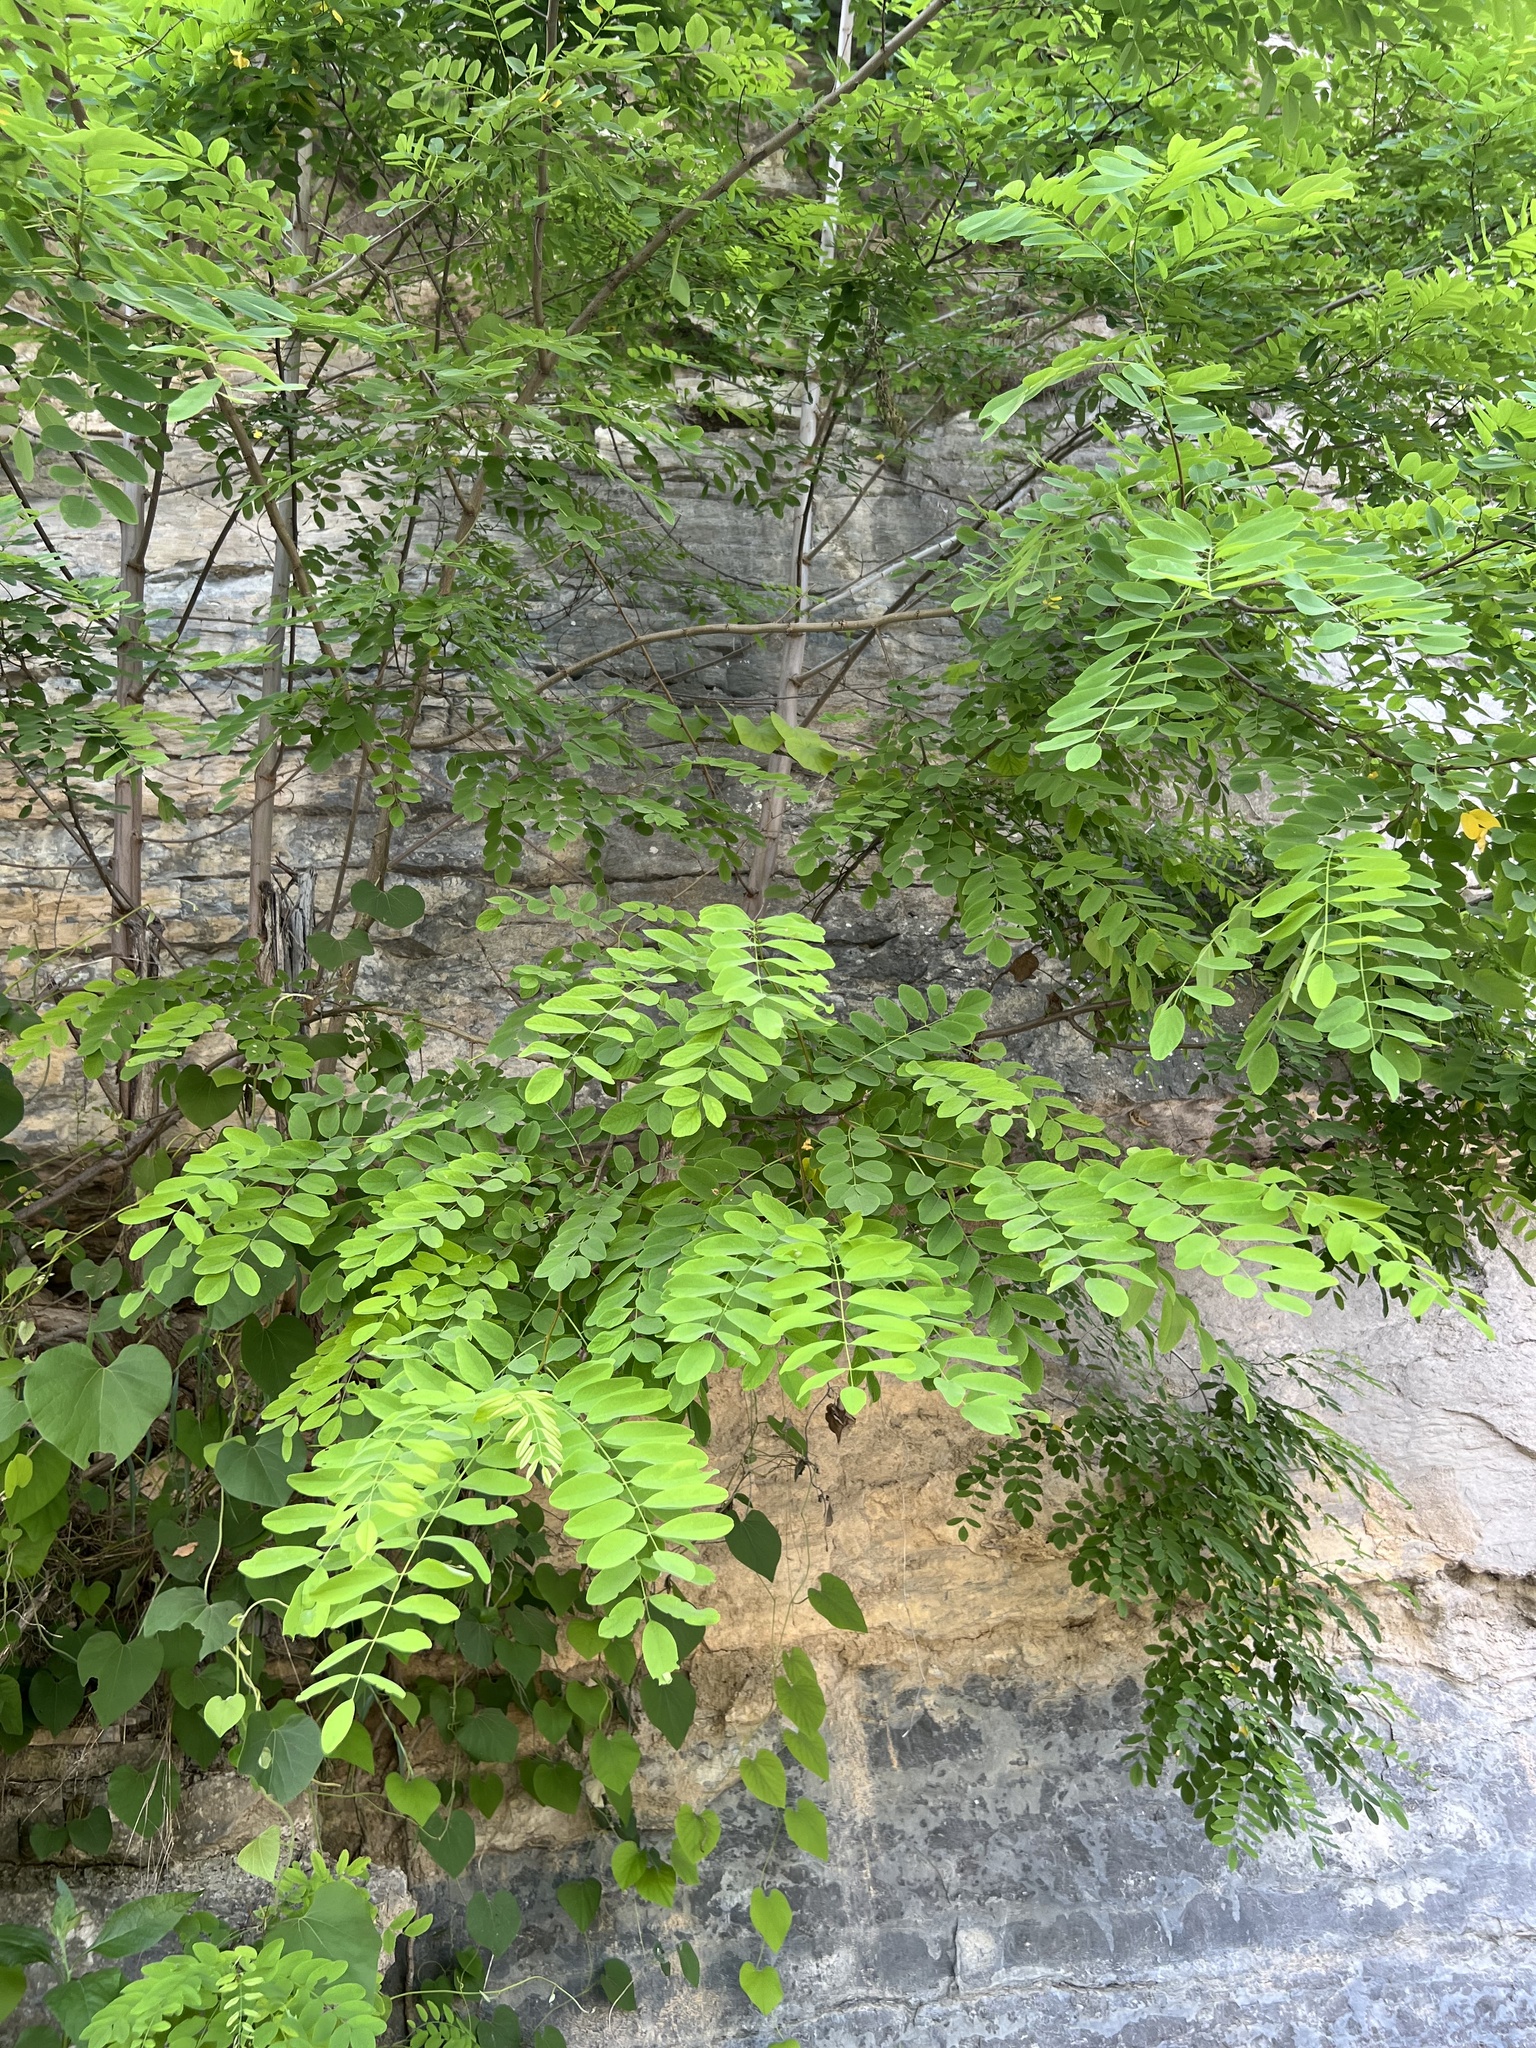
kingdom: Plantae
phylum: Tracheophyta
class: Magnoliopsida
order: Fabales
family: Fabaceae
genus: Robinia
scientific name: Robinia pseudoacacia
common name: Black locust
